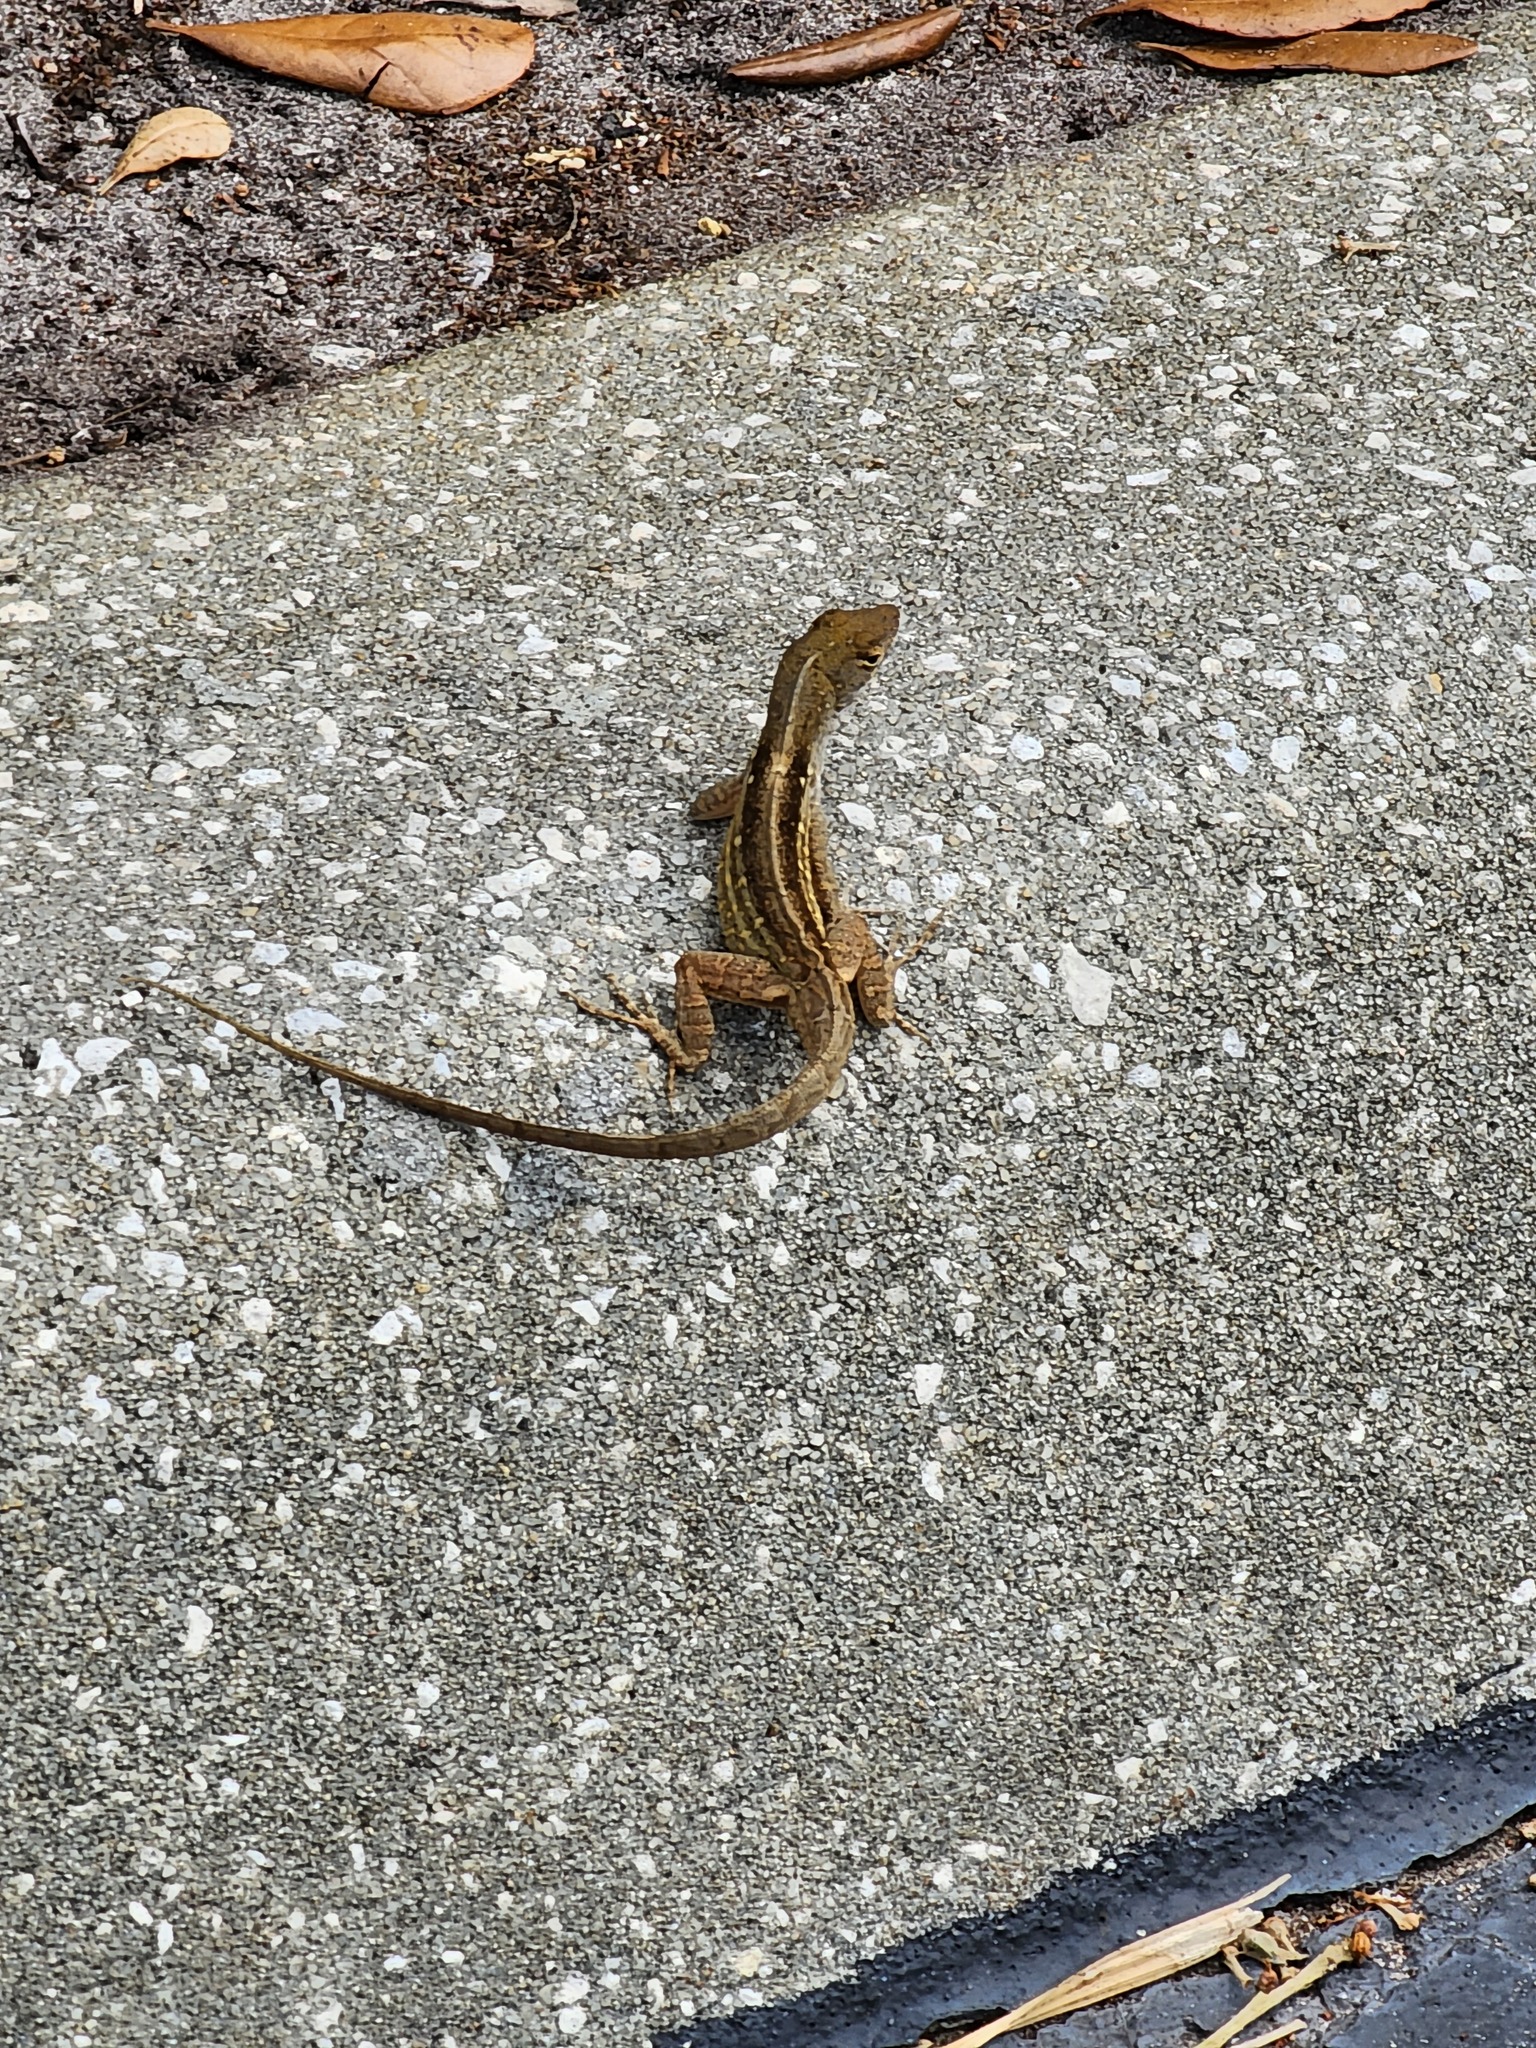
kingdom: Animalia
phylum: Chordata
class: Squamata
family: Dactyloidae
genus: Anolis
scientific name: Anolis sagrei
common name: Brown anole
